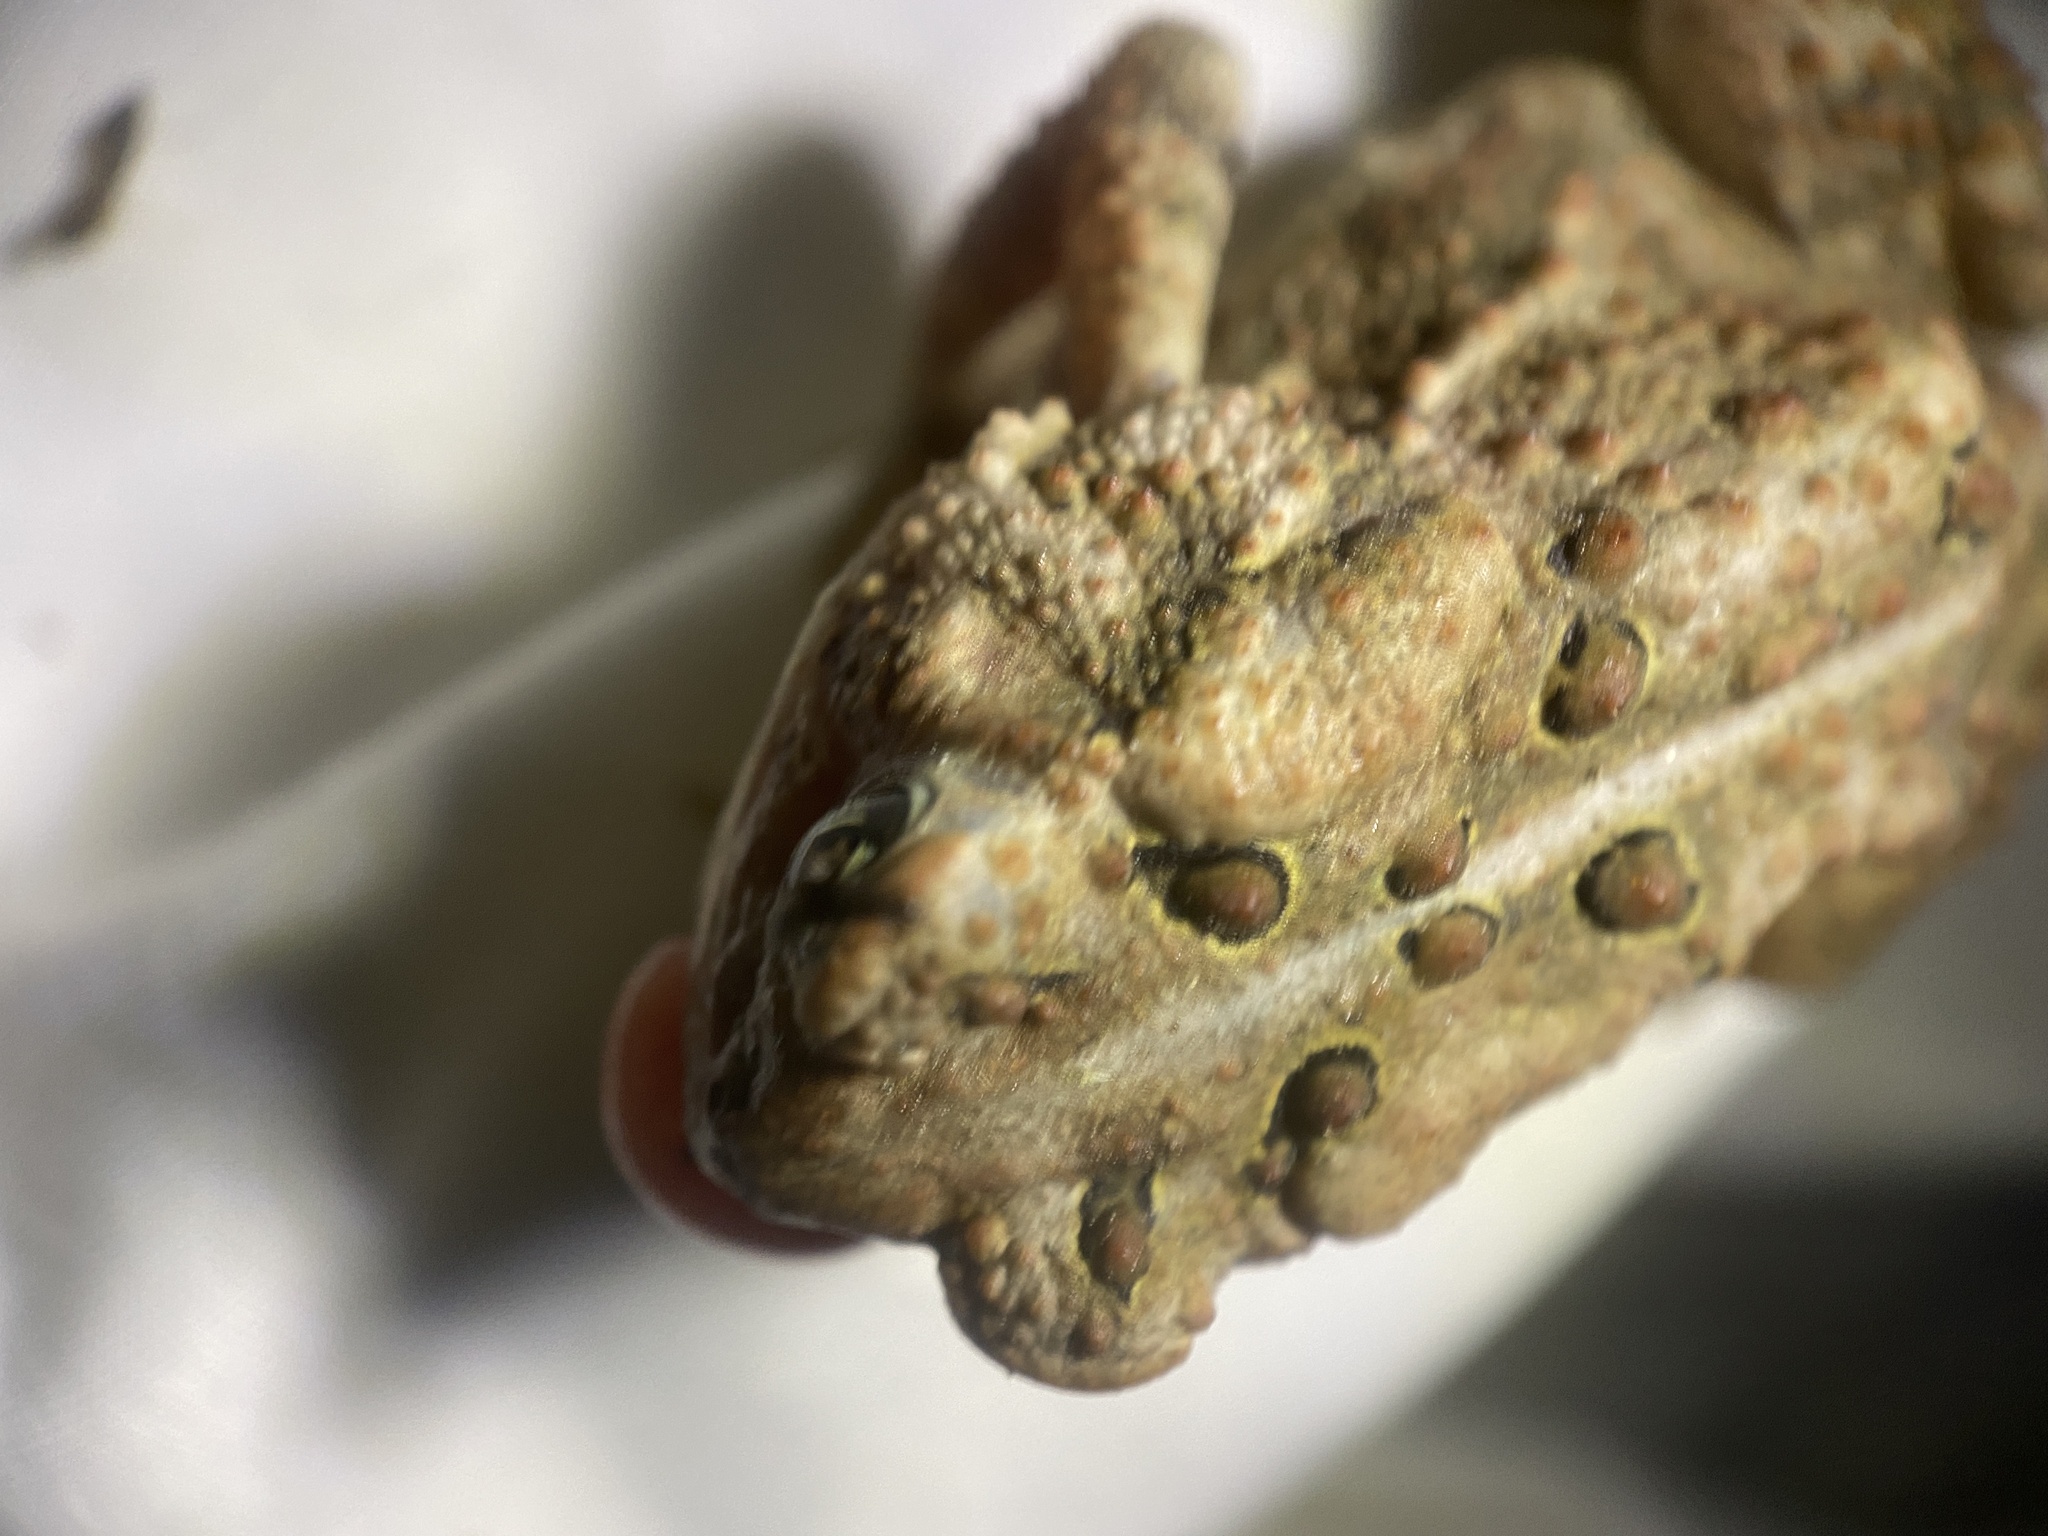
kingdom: Animalia
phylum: Chordata
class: Amphibia
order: Anura
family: Bufonidae
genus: Anaxyrus
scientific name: Anaxyrus americanus
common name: American toad
